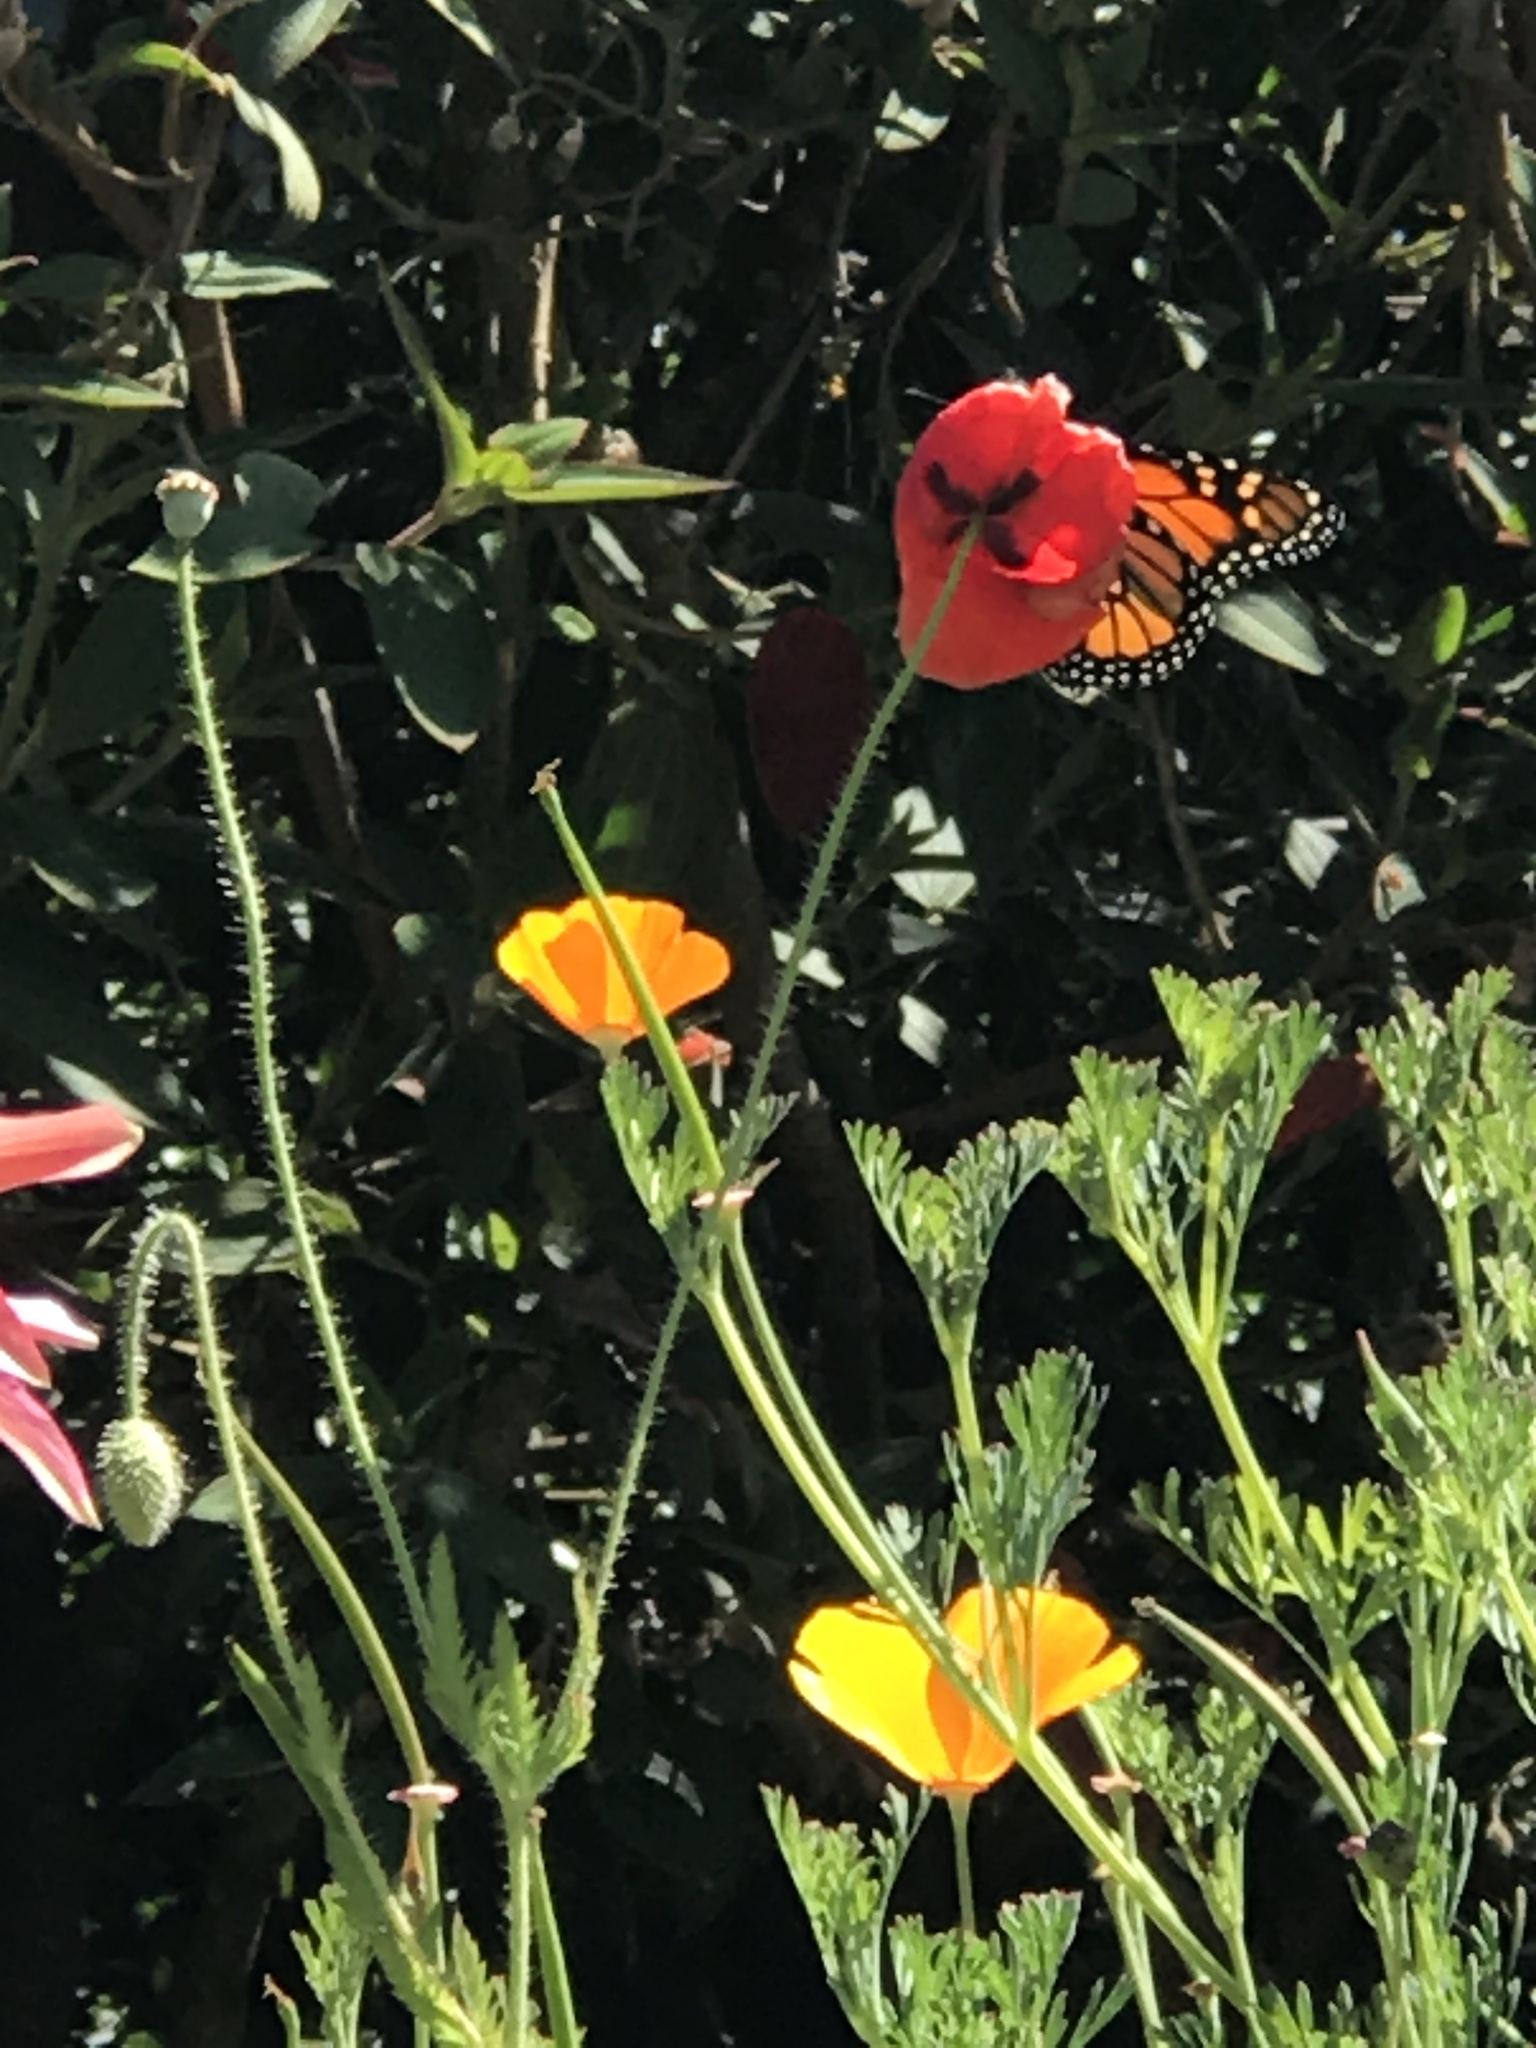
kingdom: Animalia
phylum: Arthropoda
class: Insecta
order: Lepidoptera
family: Nymphalidae
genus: Danaus
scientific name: Danaus plexippus
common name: Monarch
